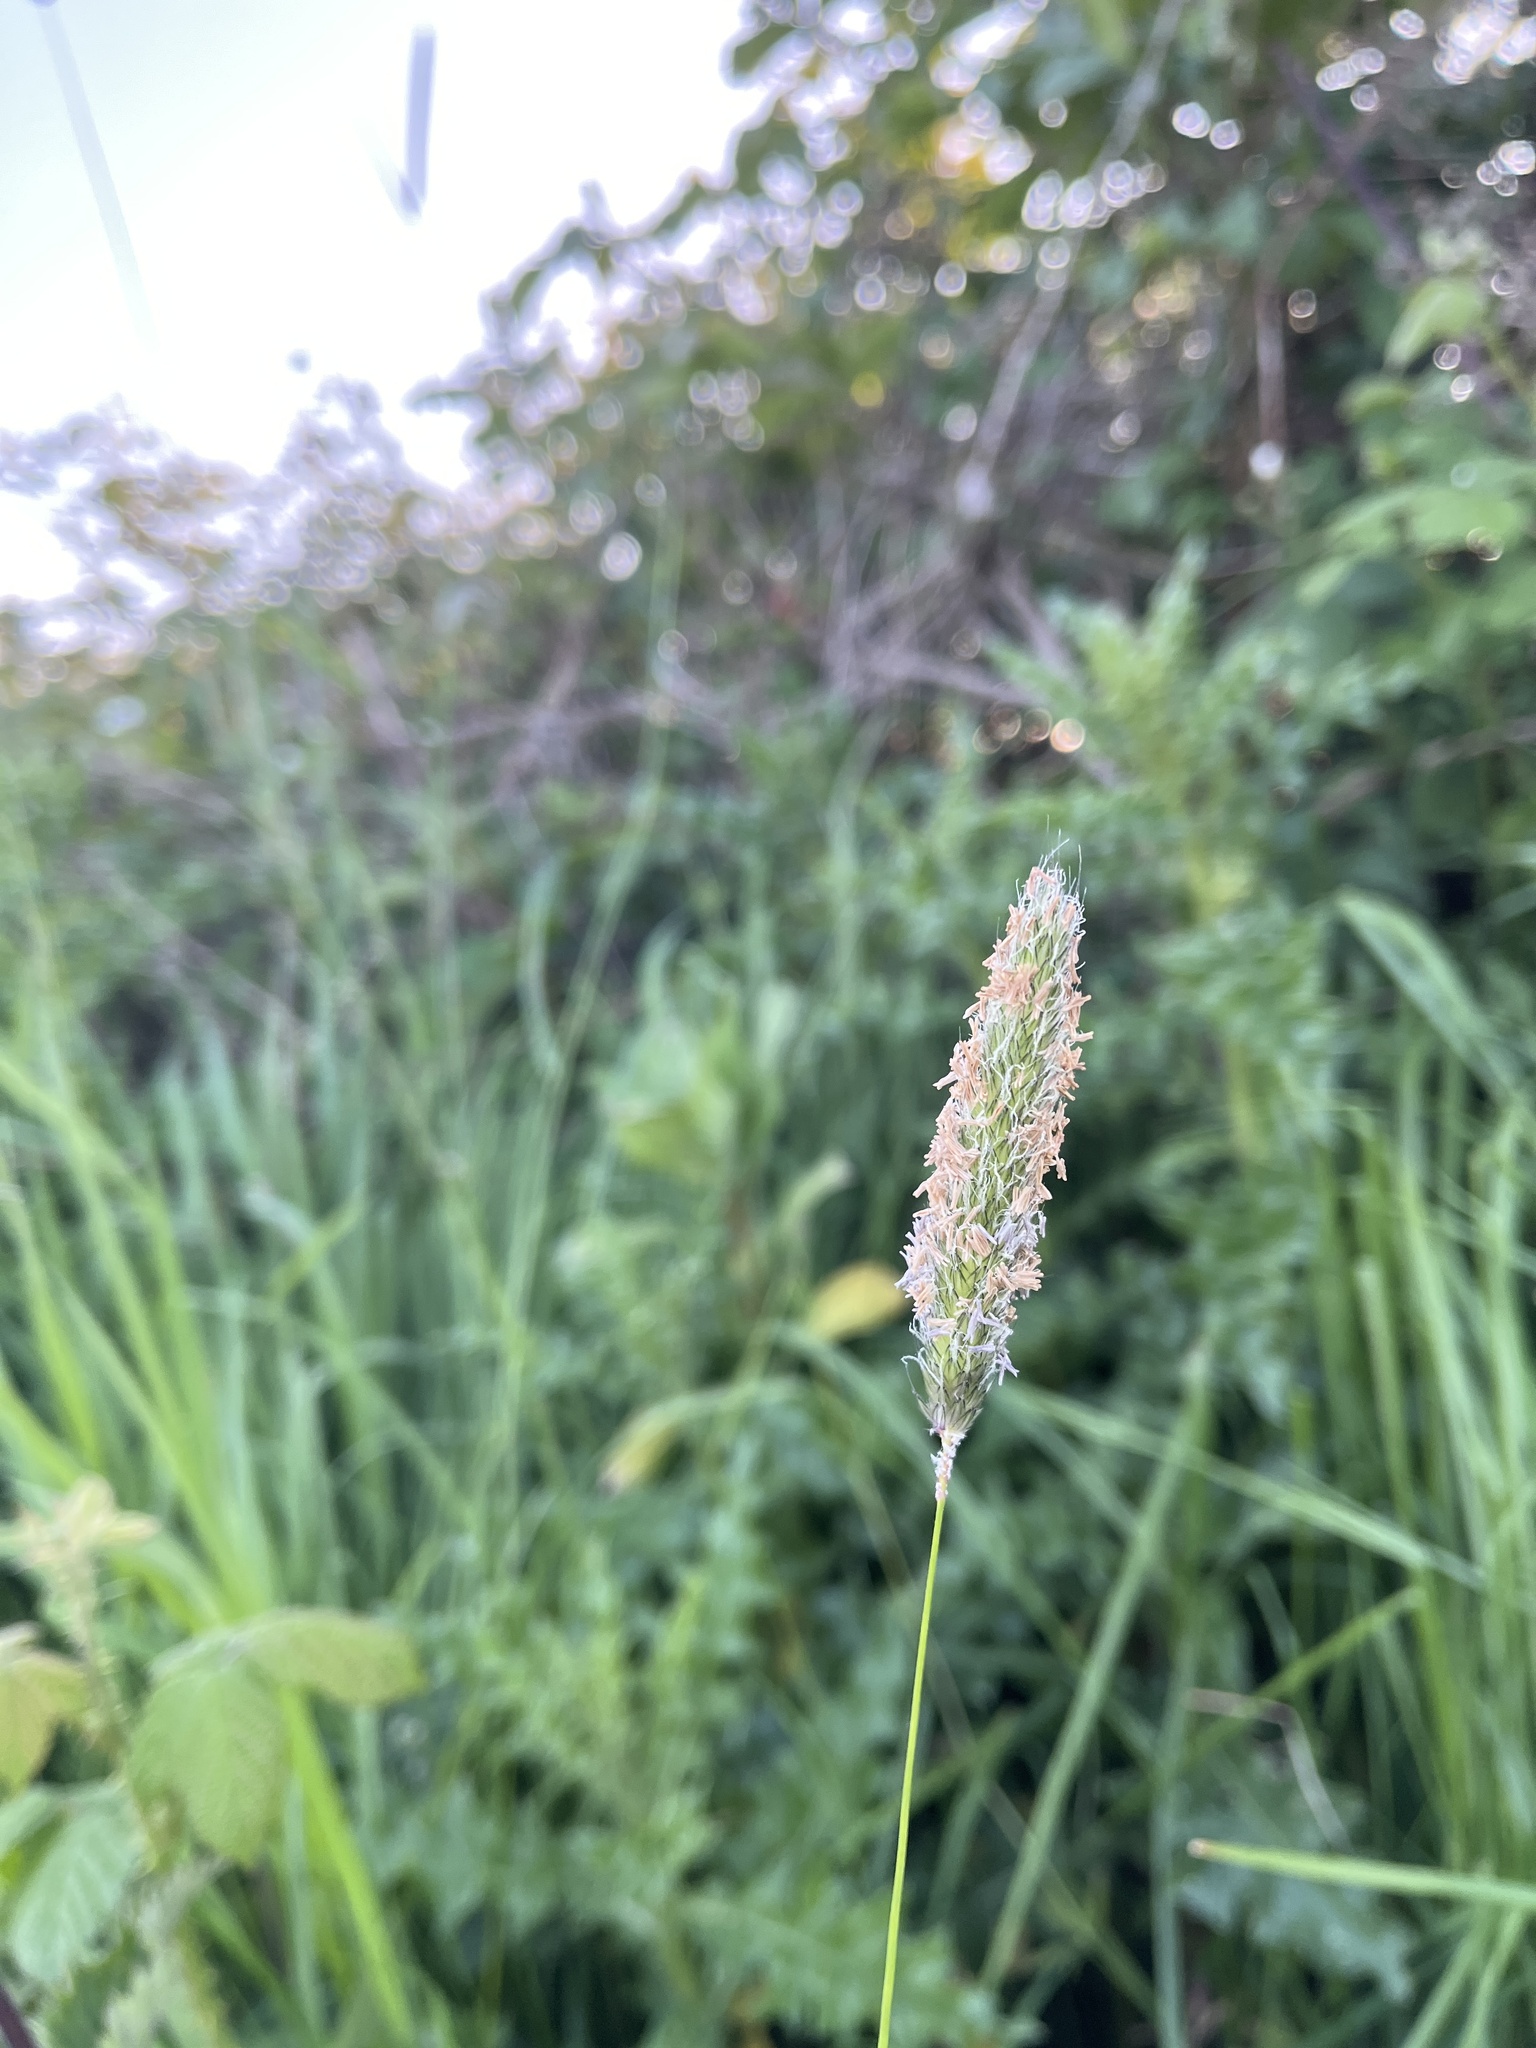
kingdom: Plantae
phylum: Tracheophyta
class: Liliopsida
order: Poales
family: Poaceae
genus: Alopecurus
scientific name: Alopecurus pratensis
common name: Meadow foxtail
